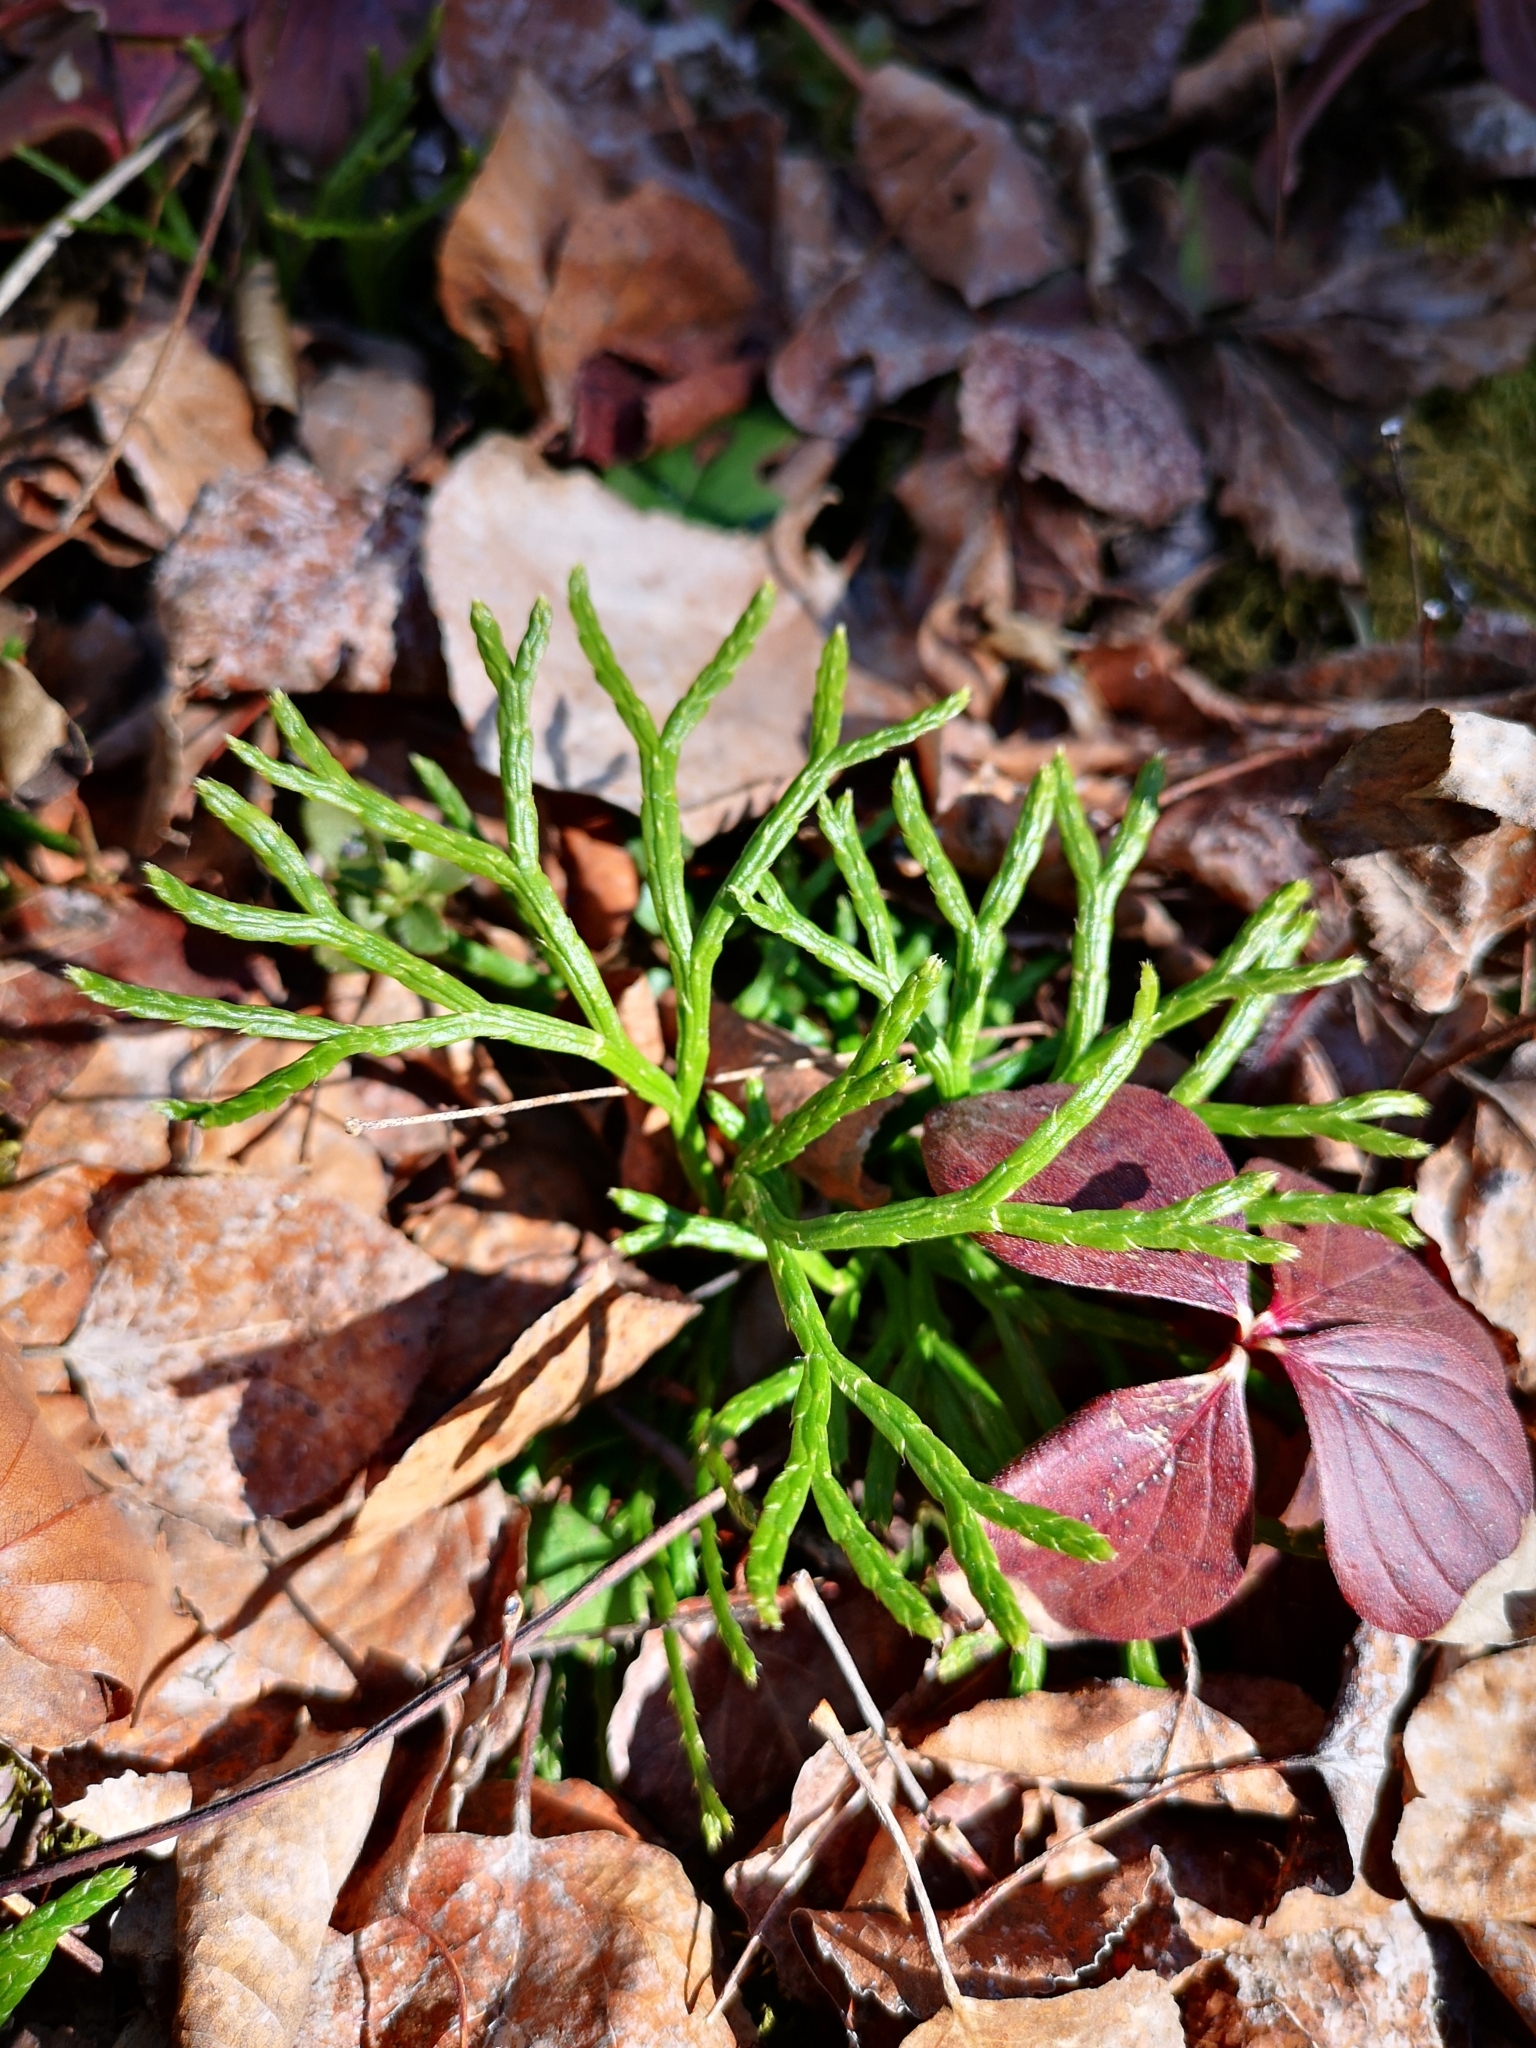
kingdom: Plantae
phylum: Tracheophyta
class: Lycopodiopsida
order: Lycopodiales
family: Lycopodiaceae
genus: Diphasiastrum
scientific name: Diphasiastrum complanatum
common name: Northern running-pine
